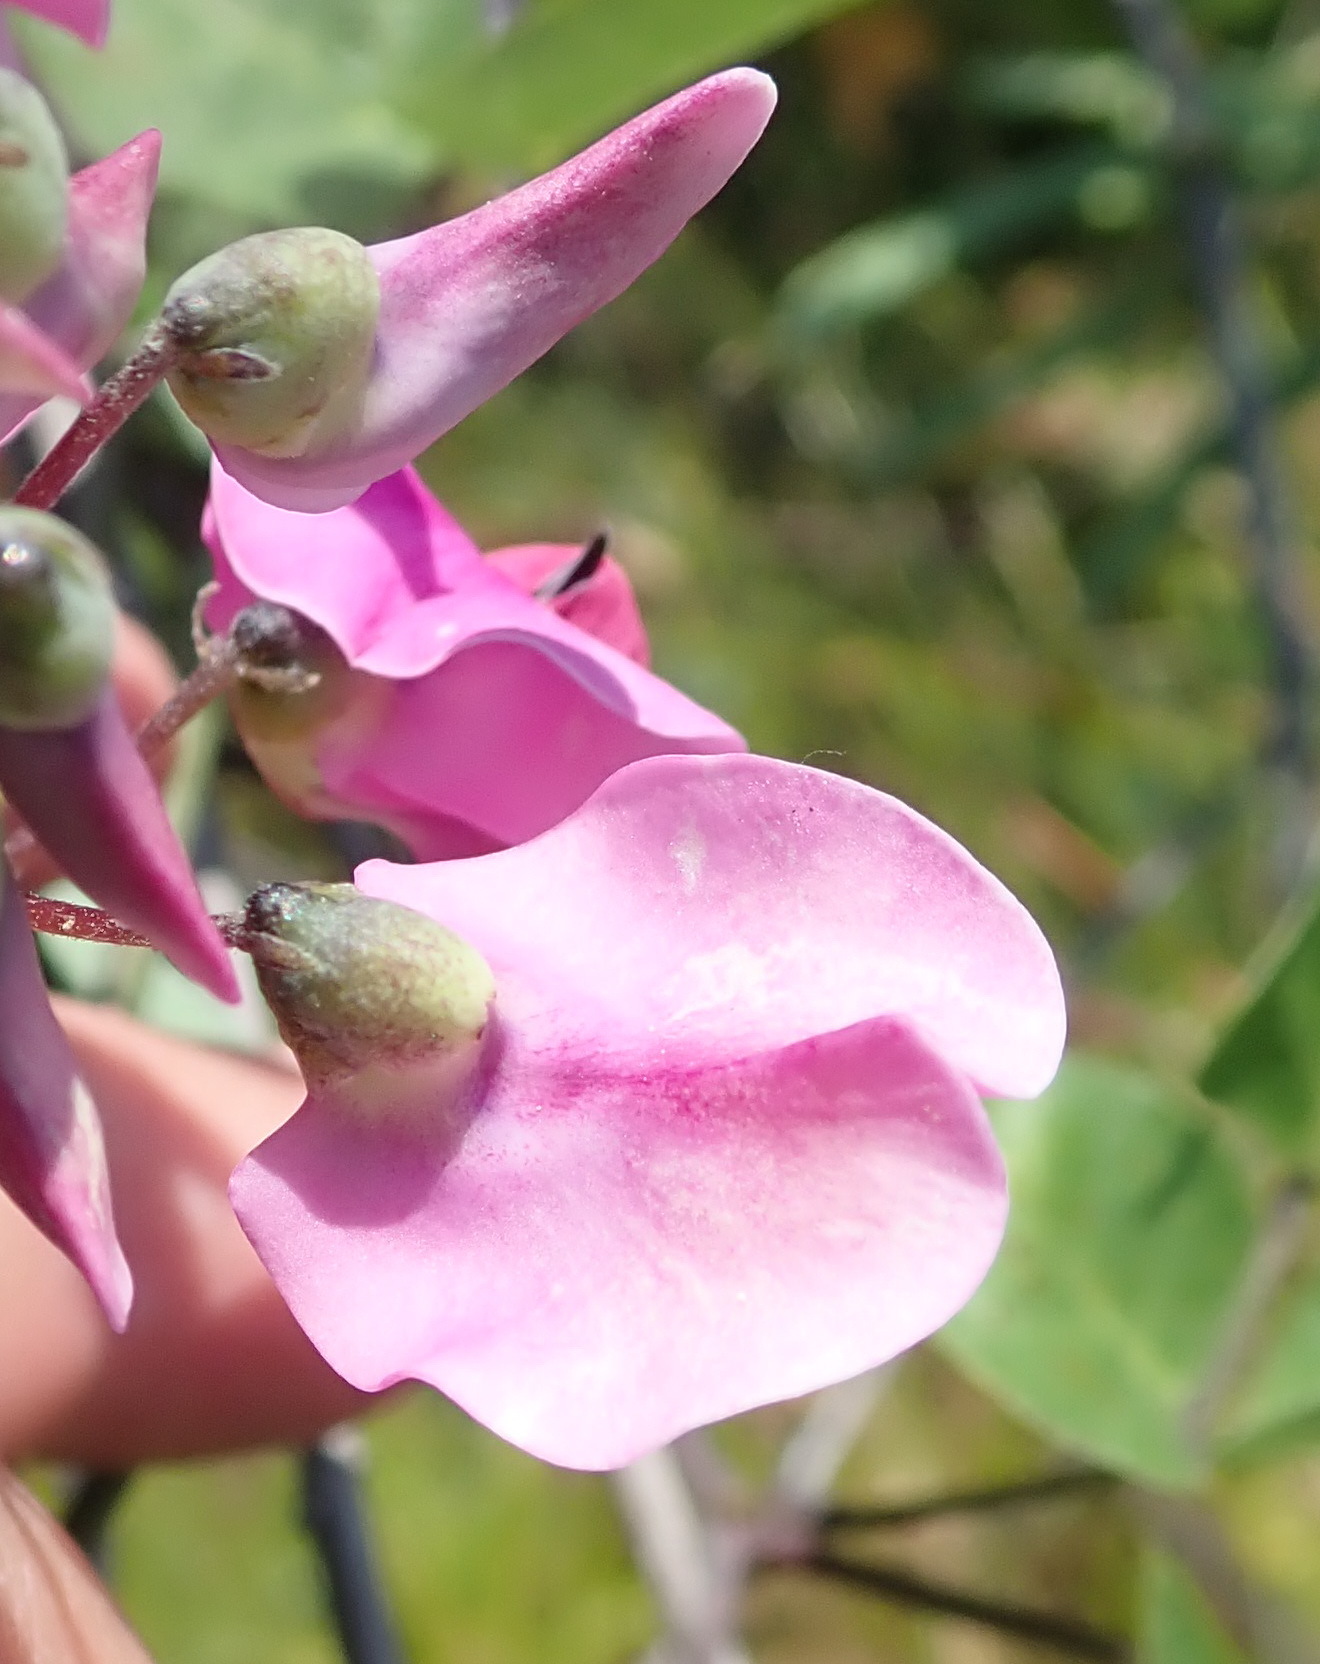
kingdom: Plantae
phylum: Tracheophyta
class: Magnoliopsida
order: Fabales
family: Fabaceae
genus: Dipogon
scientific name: Dipogon lignosus
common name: Okie bean
